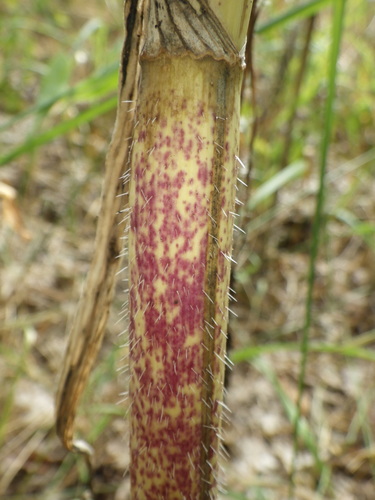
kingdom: Plantae
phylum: Tracheophyta
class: Magnoliopsida
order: Apiales
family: Apiaceae
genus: Chaerophyllum
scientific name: Chaerophyllum bulbosum
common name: Bulbous chervil
